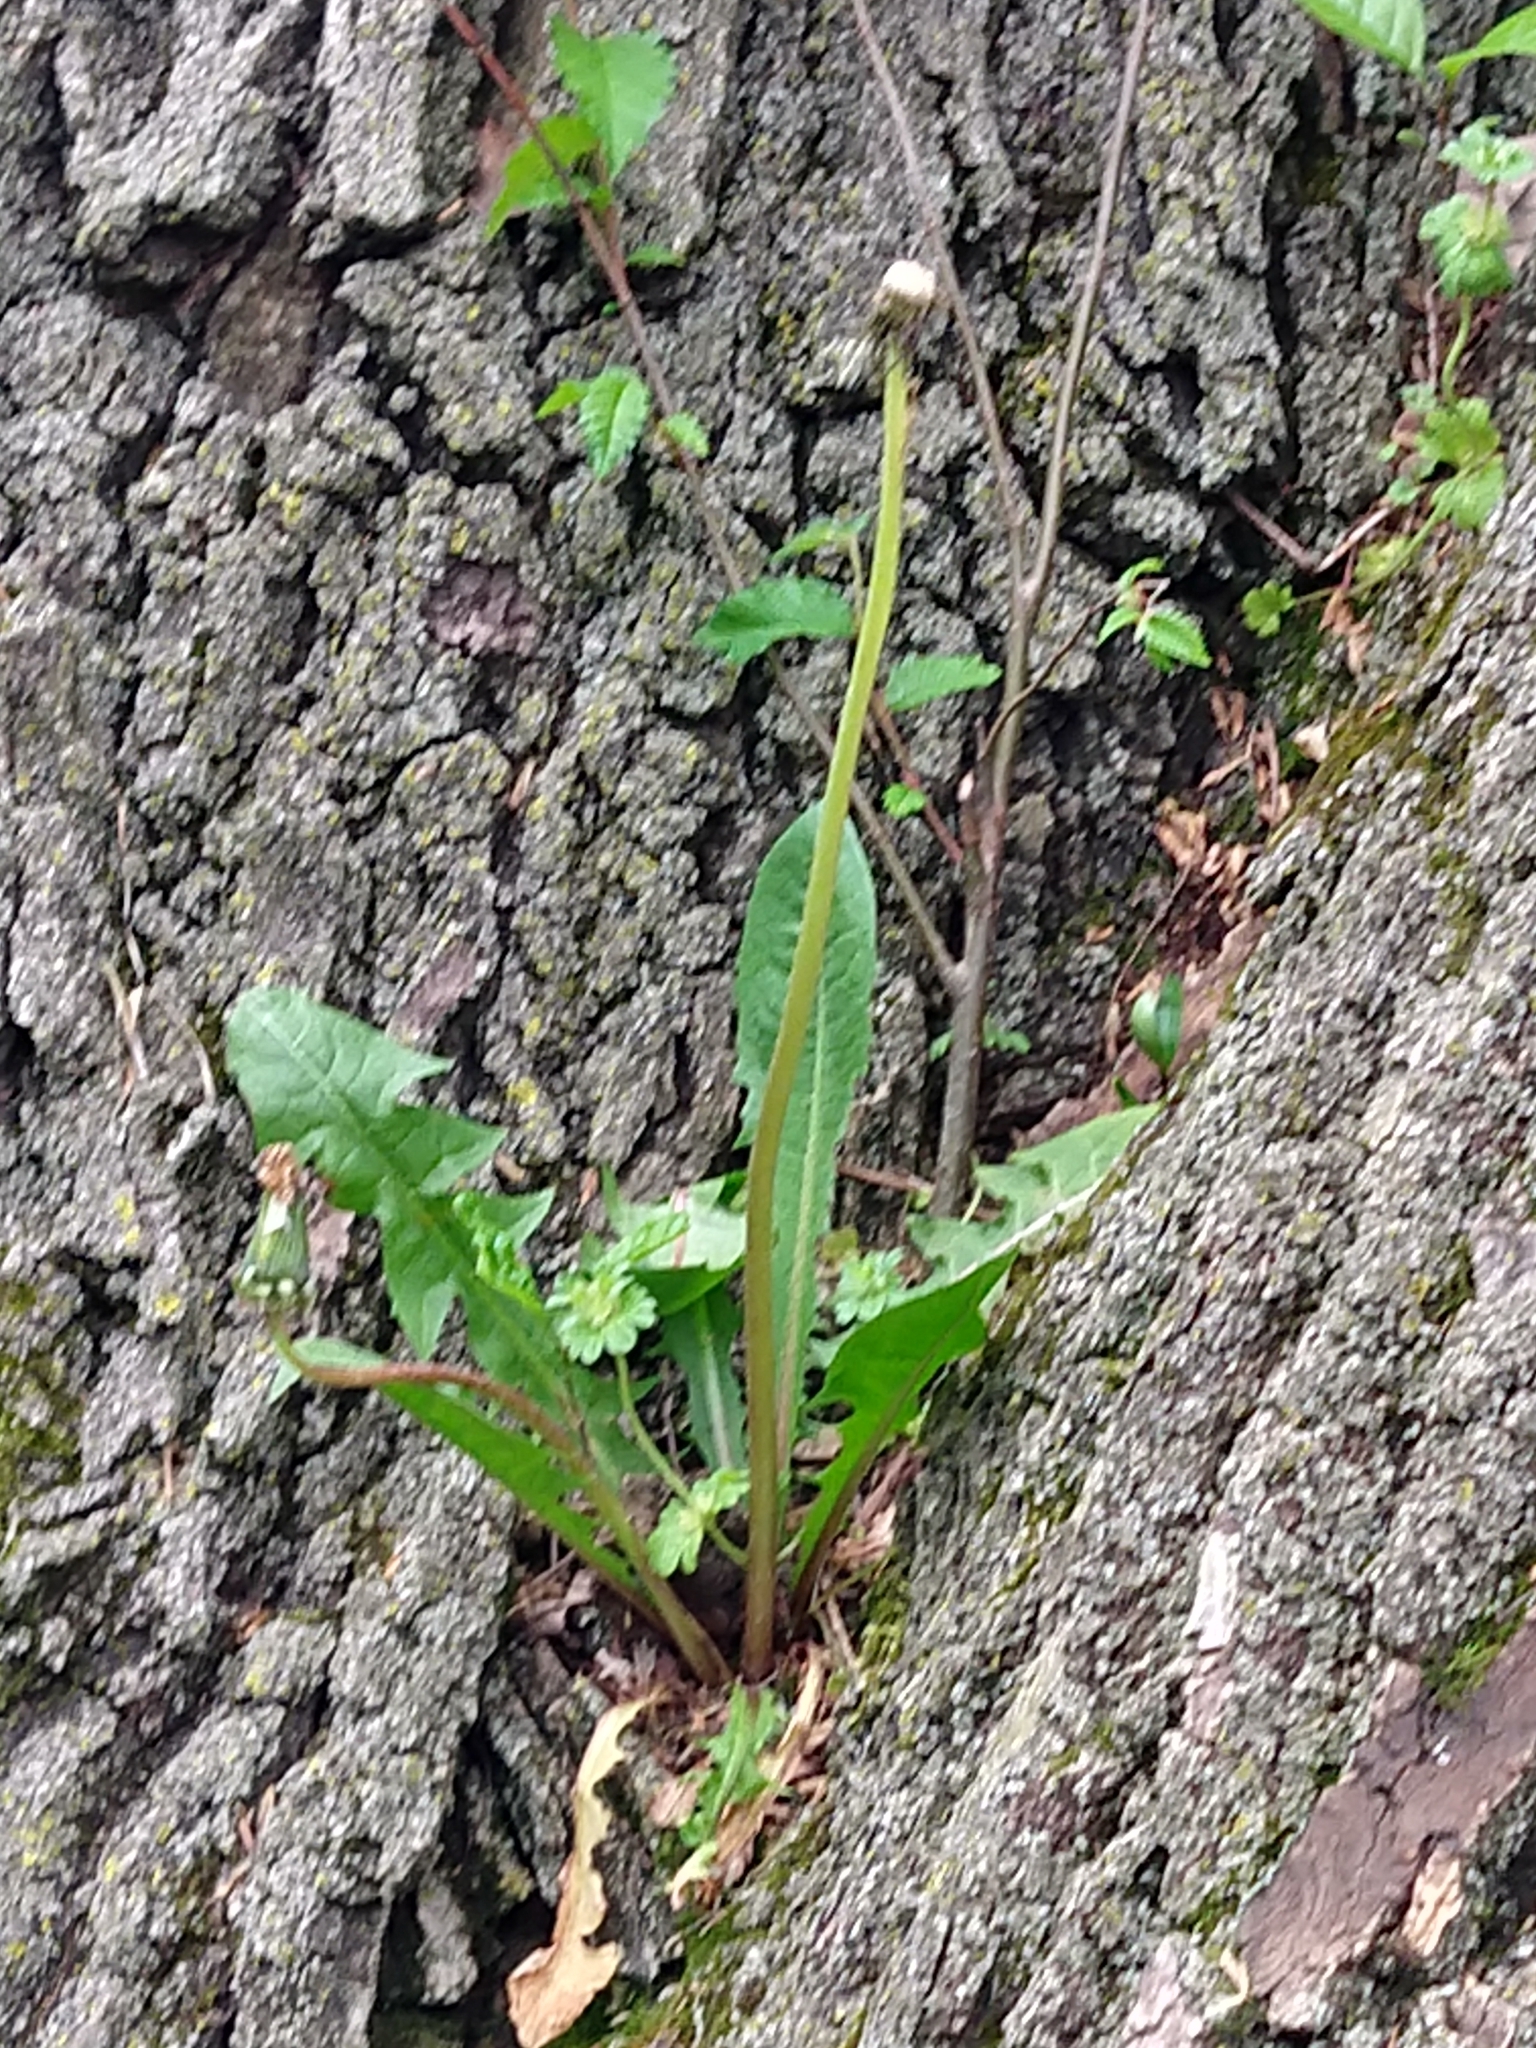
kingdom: Plantae
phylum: Tracheophyta
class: Magnoliopsida
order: Asterales
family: Asteraceae
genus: Taraxacum
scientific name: Taraxacum officinale
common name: Common dandelion
